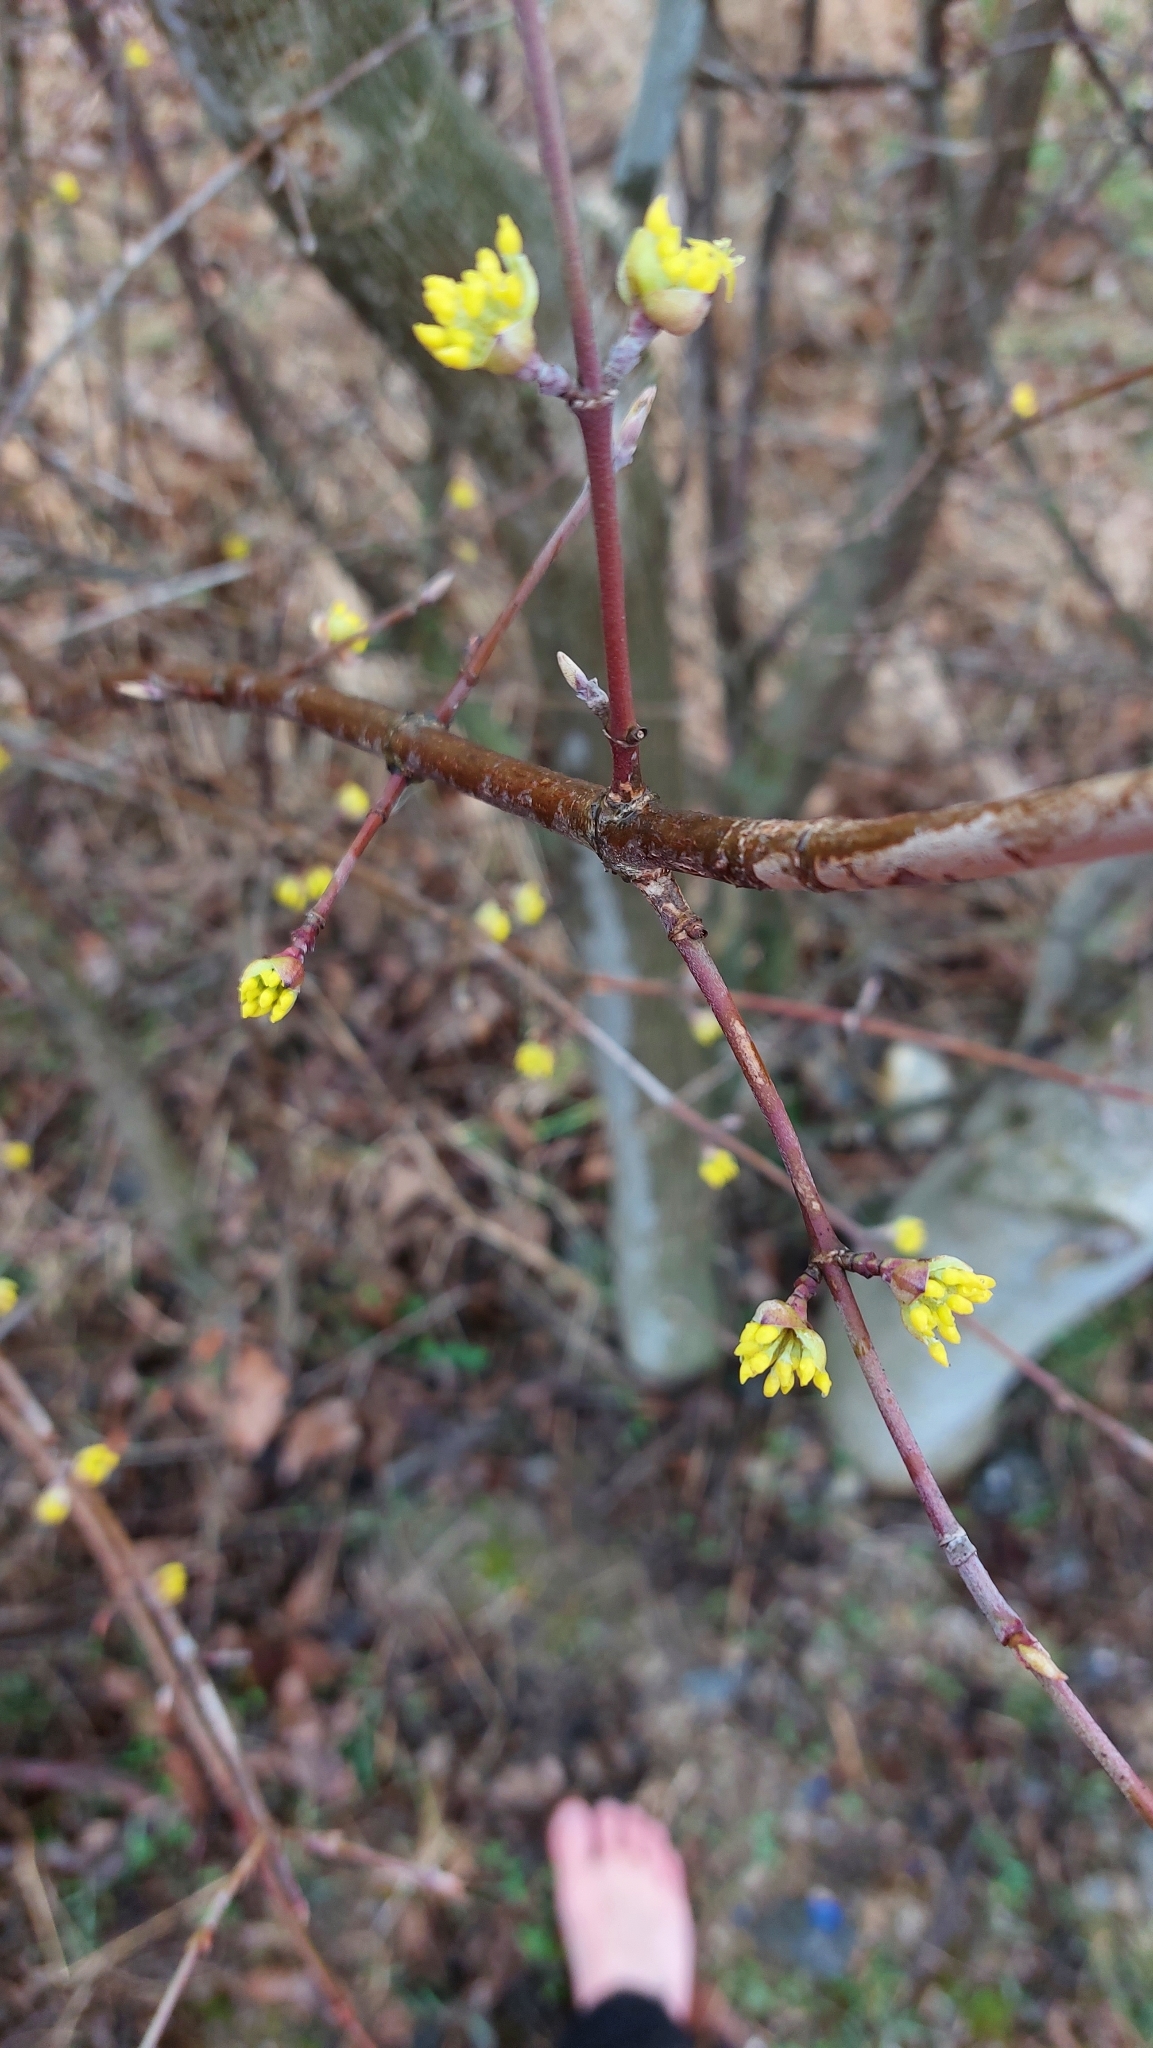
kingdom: Plantae
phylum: Tracheophyta
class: Magnoliopsida
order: Cornales
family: Cornaceae
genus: Cornus
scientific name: Cornus mas
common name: Cornelian-cherry
